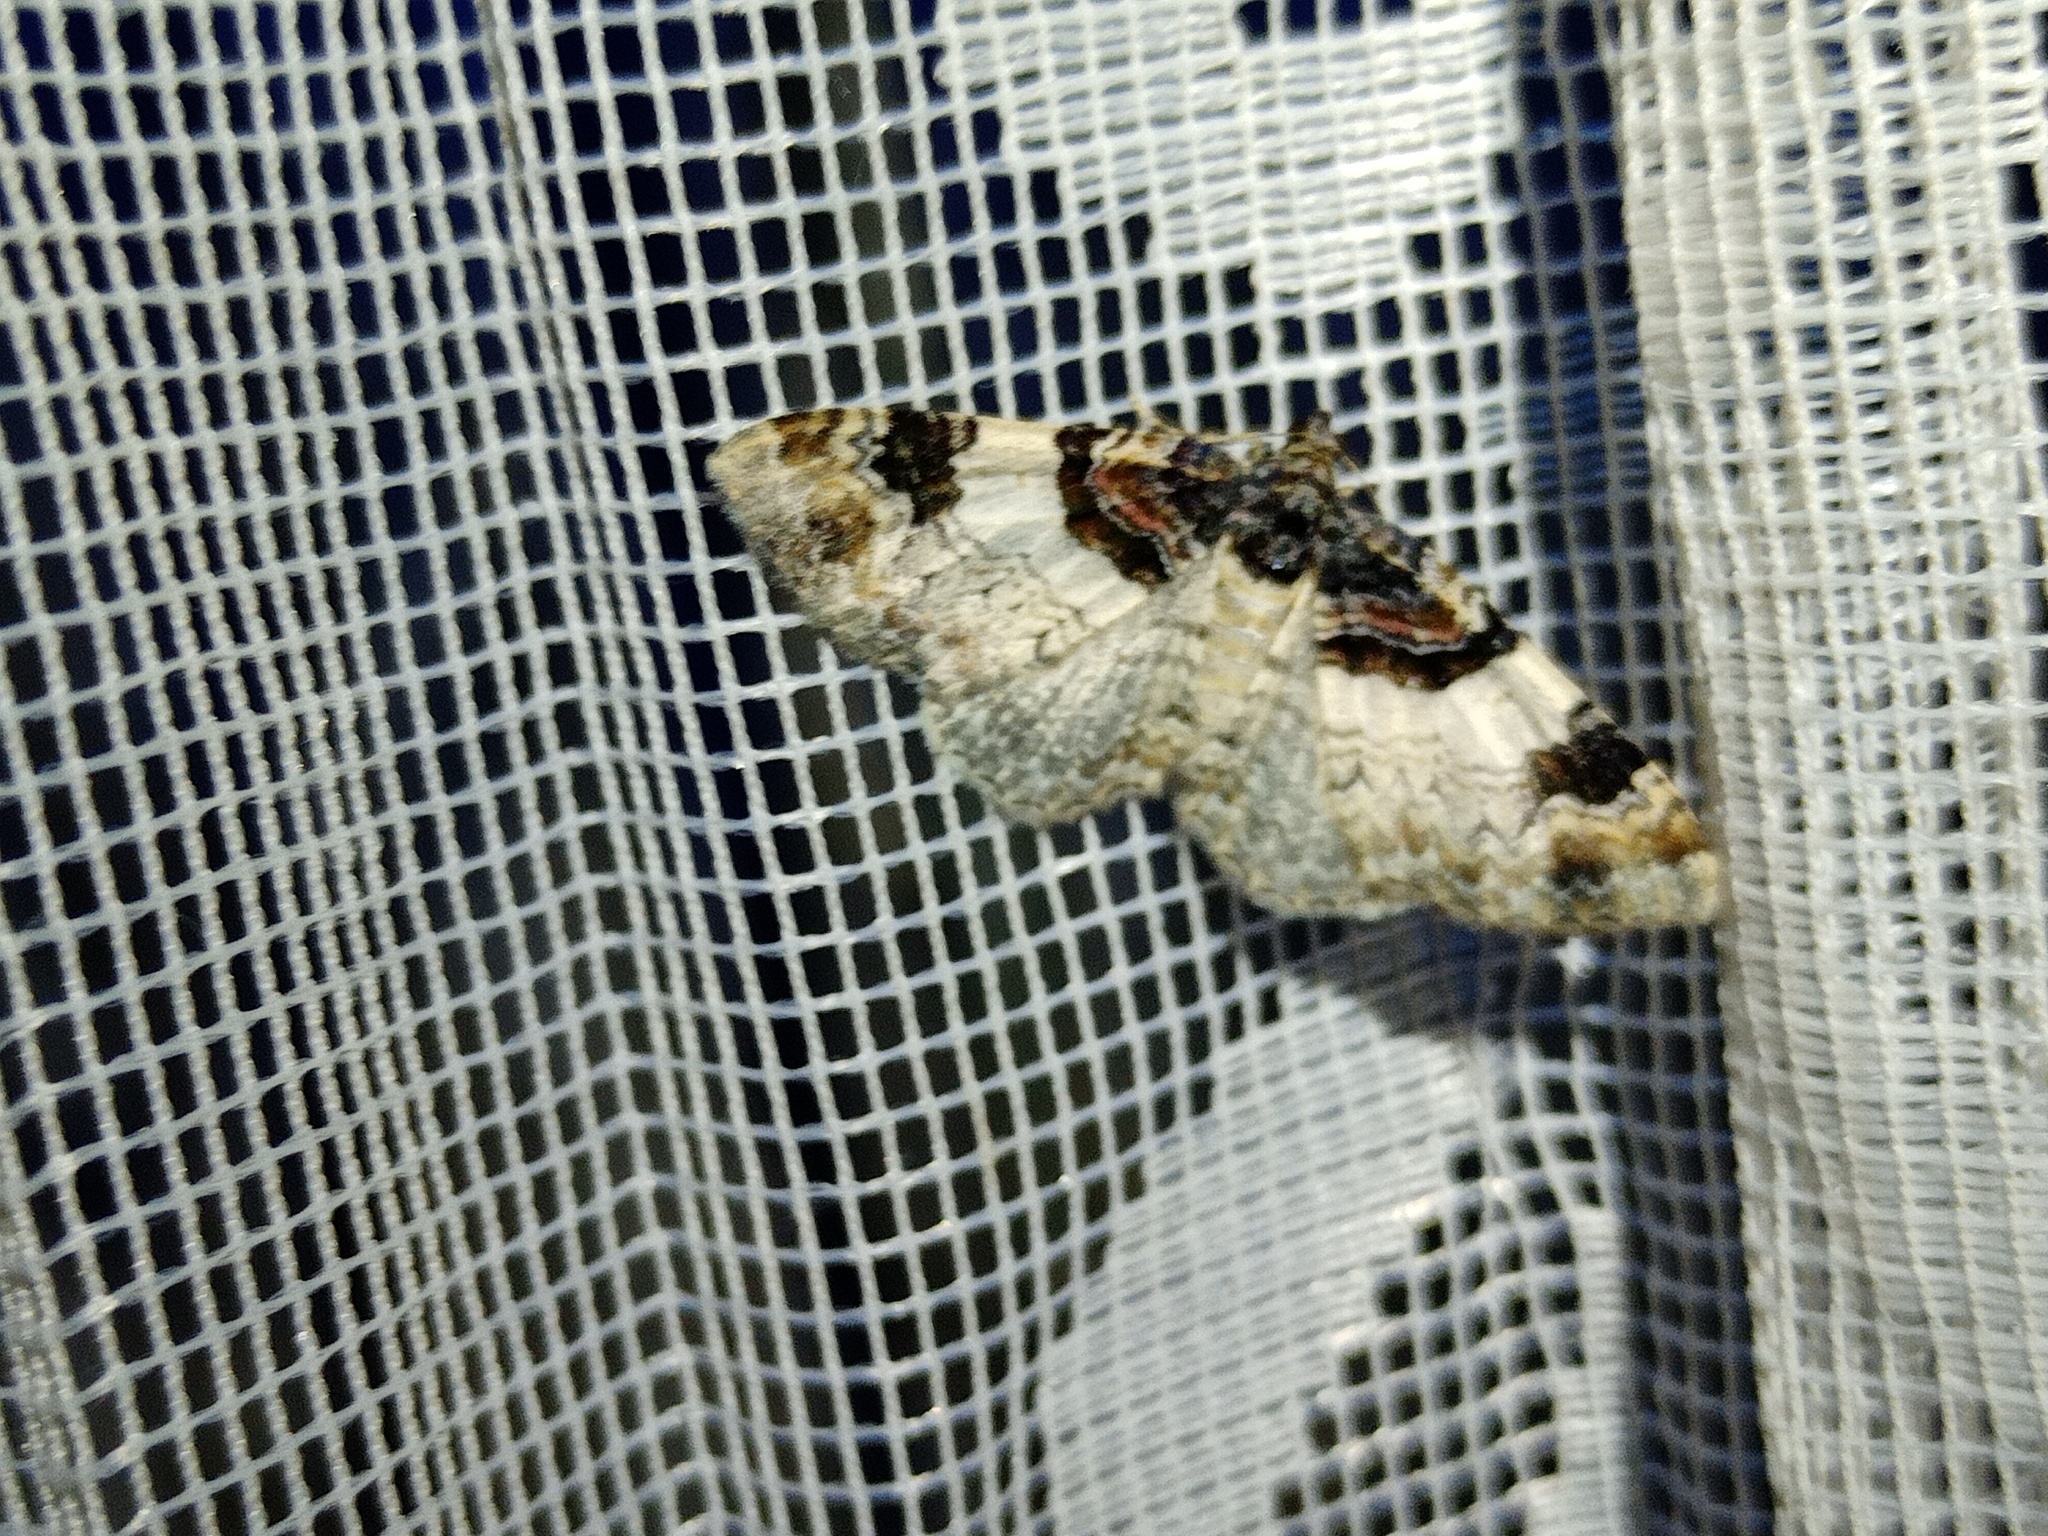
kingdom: Animalia
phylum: Arthropoda
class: Insecta
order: Lepidoptera
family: Geometridae
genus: Catarhoe
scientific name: Catarhoe cuculata
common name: Royal mantle
